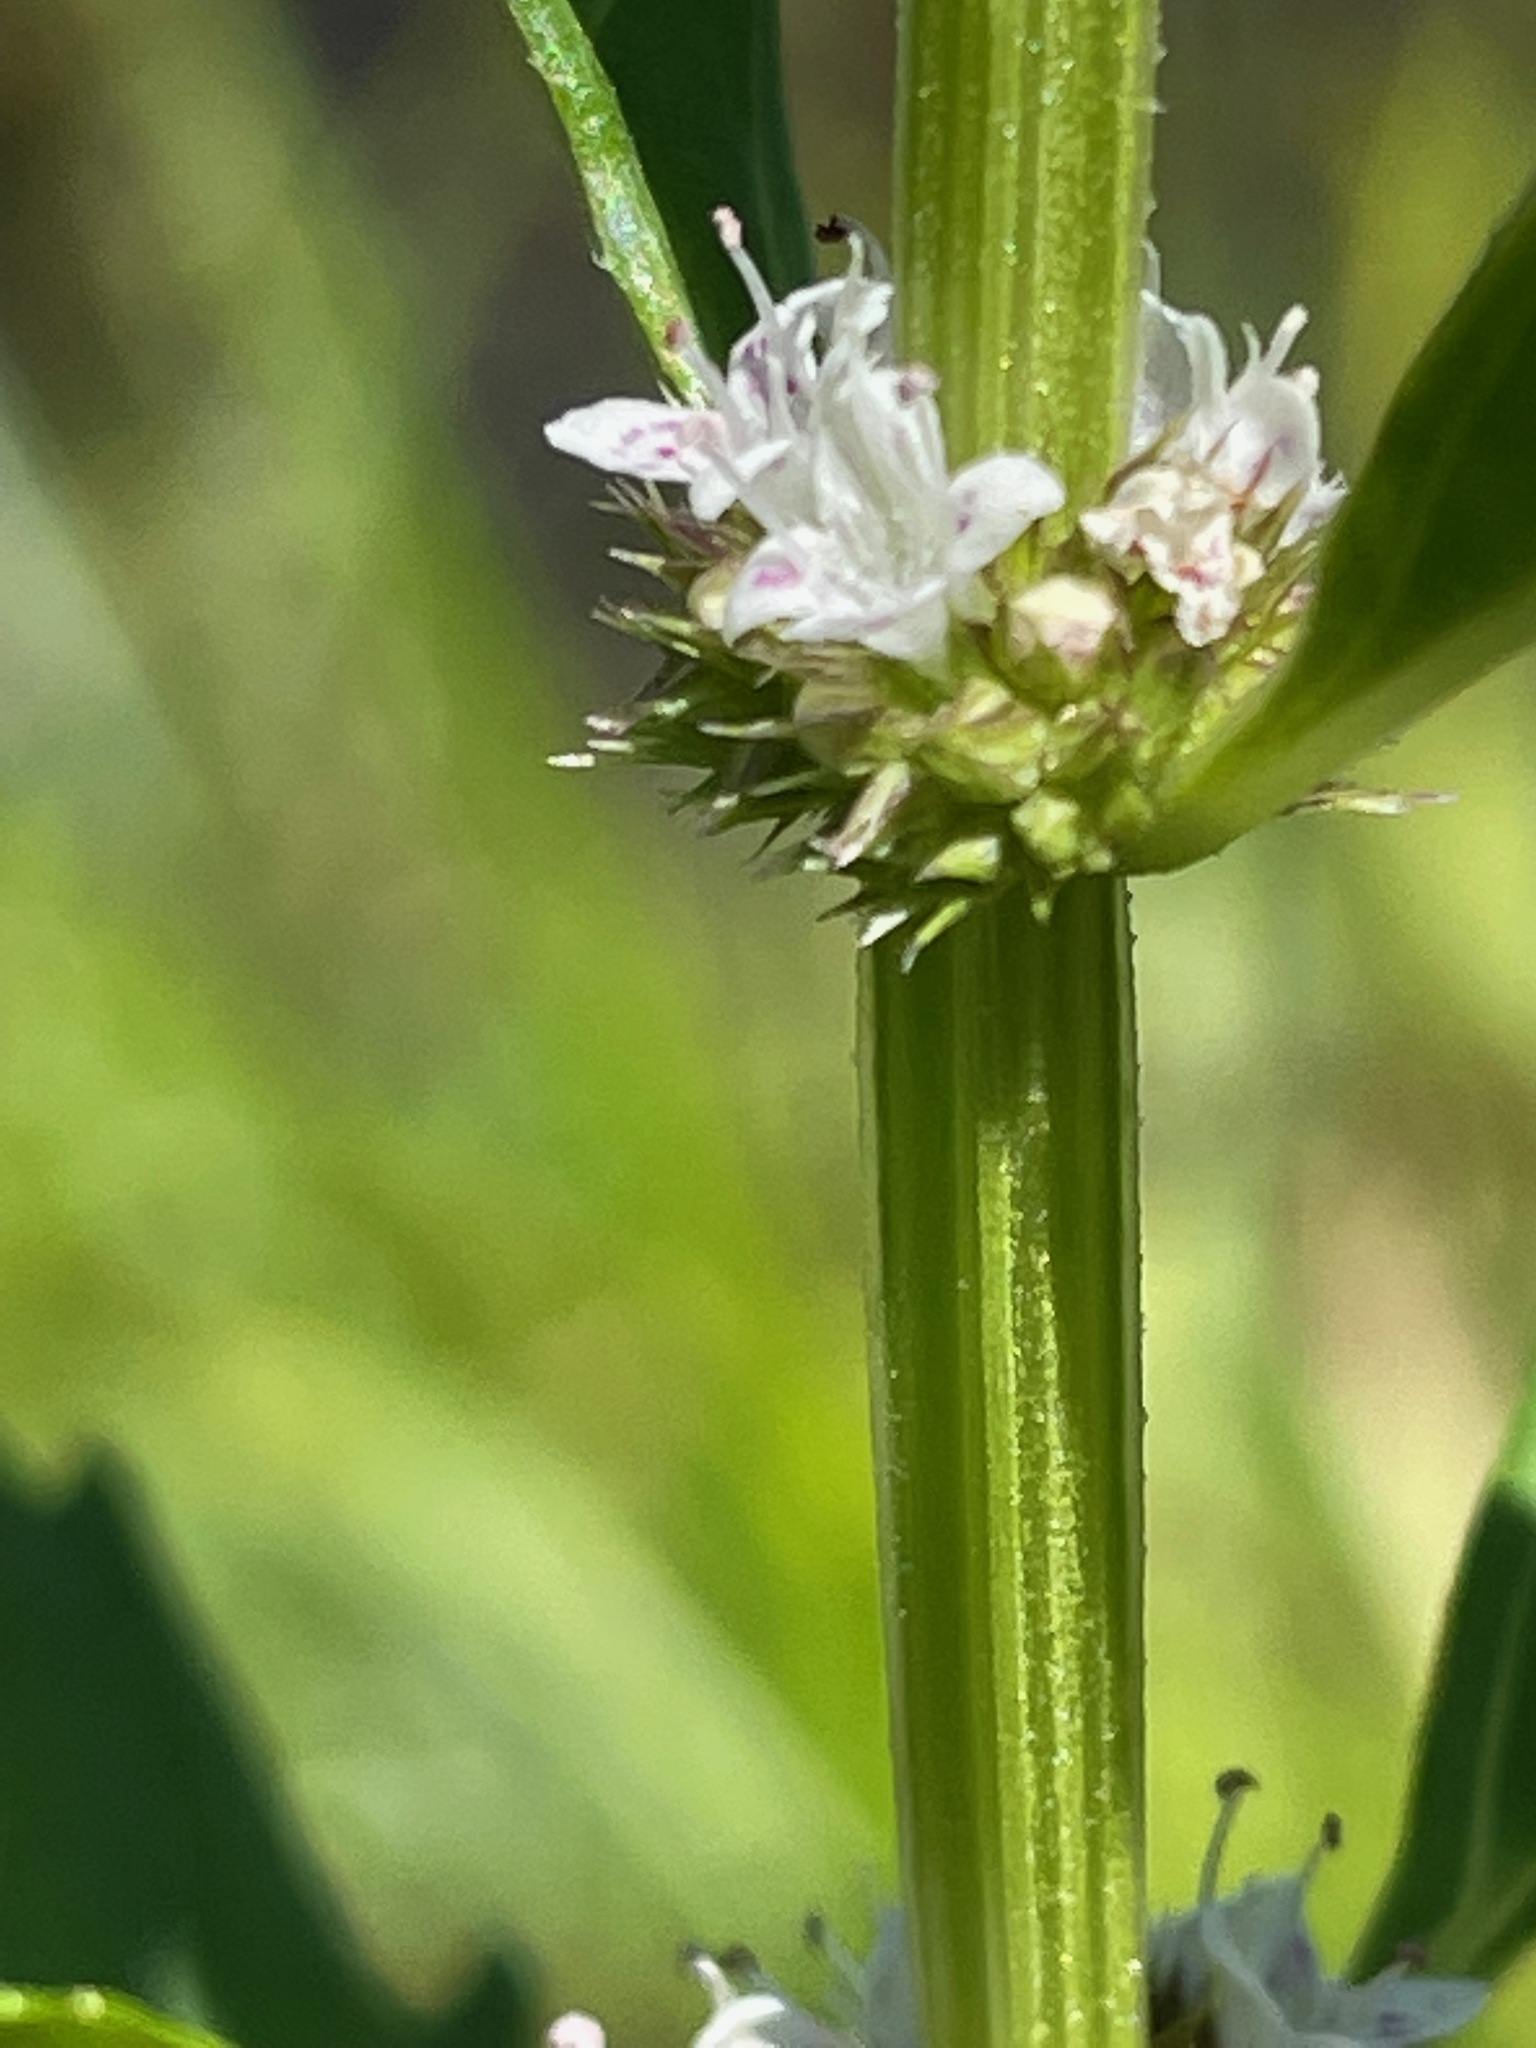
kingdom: Plantae
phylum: Tracheophyta
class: Magnoliopsida
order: Lamiales
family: Lamiaceae
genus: Lycopus
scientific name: Lycopus americanus
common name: American bugleweed
